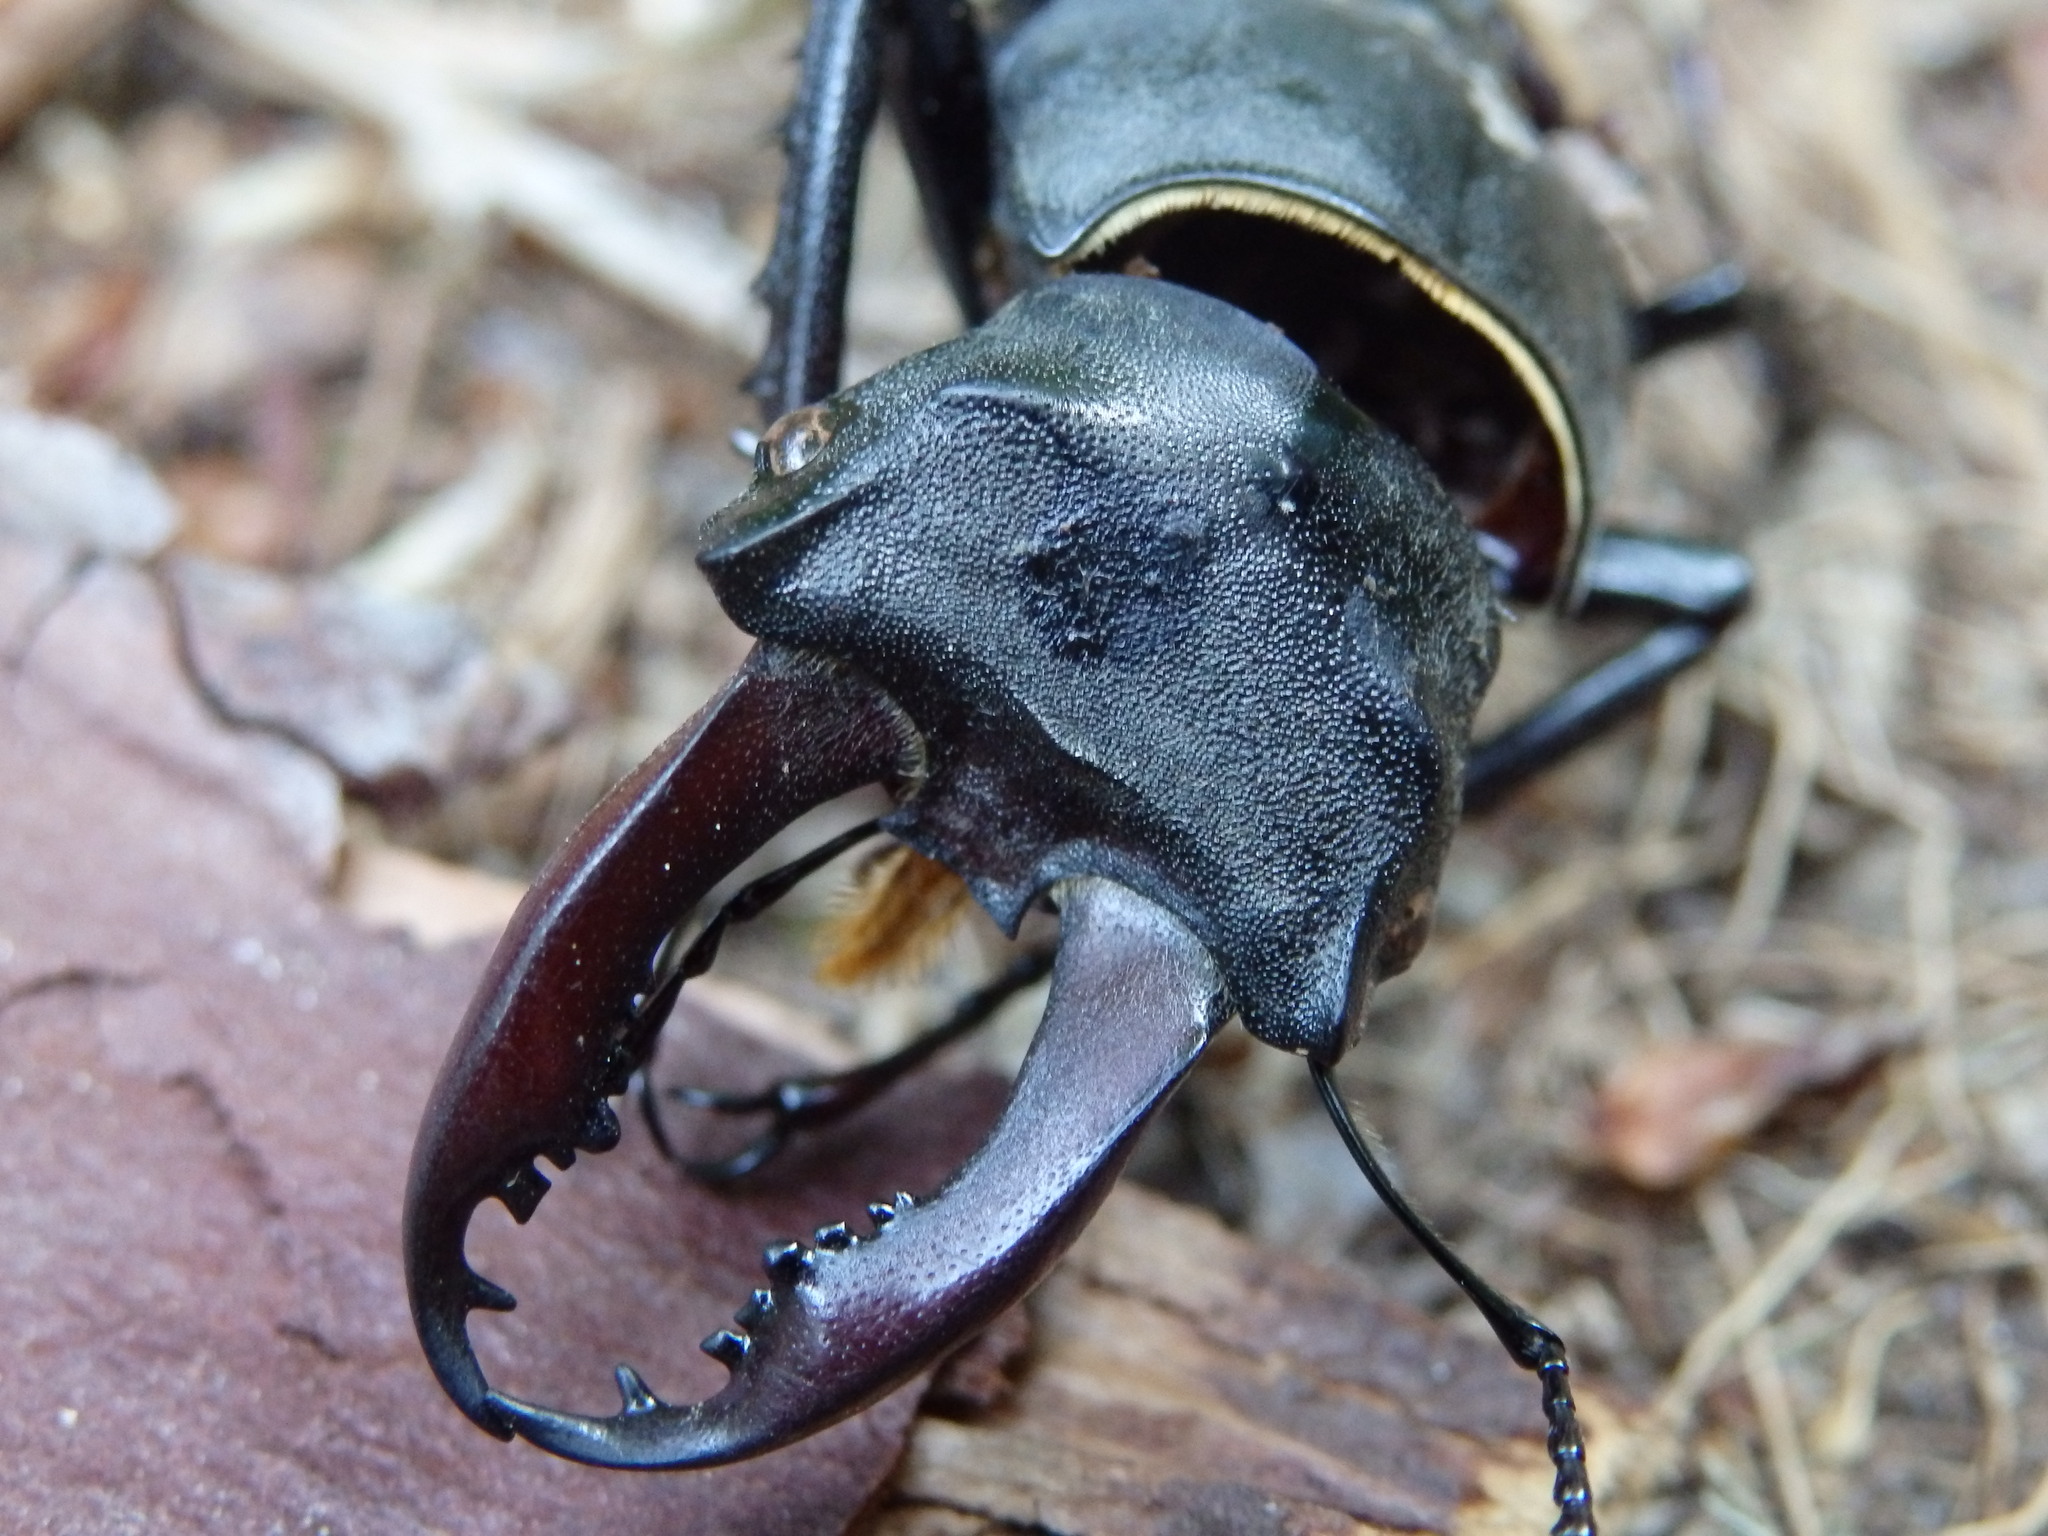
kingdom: Animalia
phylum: Arthropoda
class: Insecta
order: Coleoptera
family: Lucanidae
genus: Lucanus
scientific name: Lucanus cervus
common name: Stag beetle
